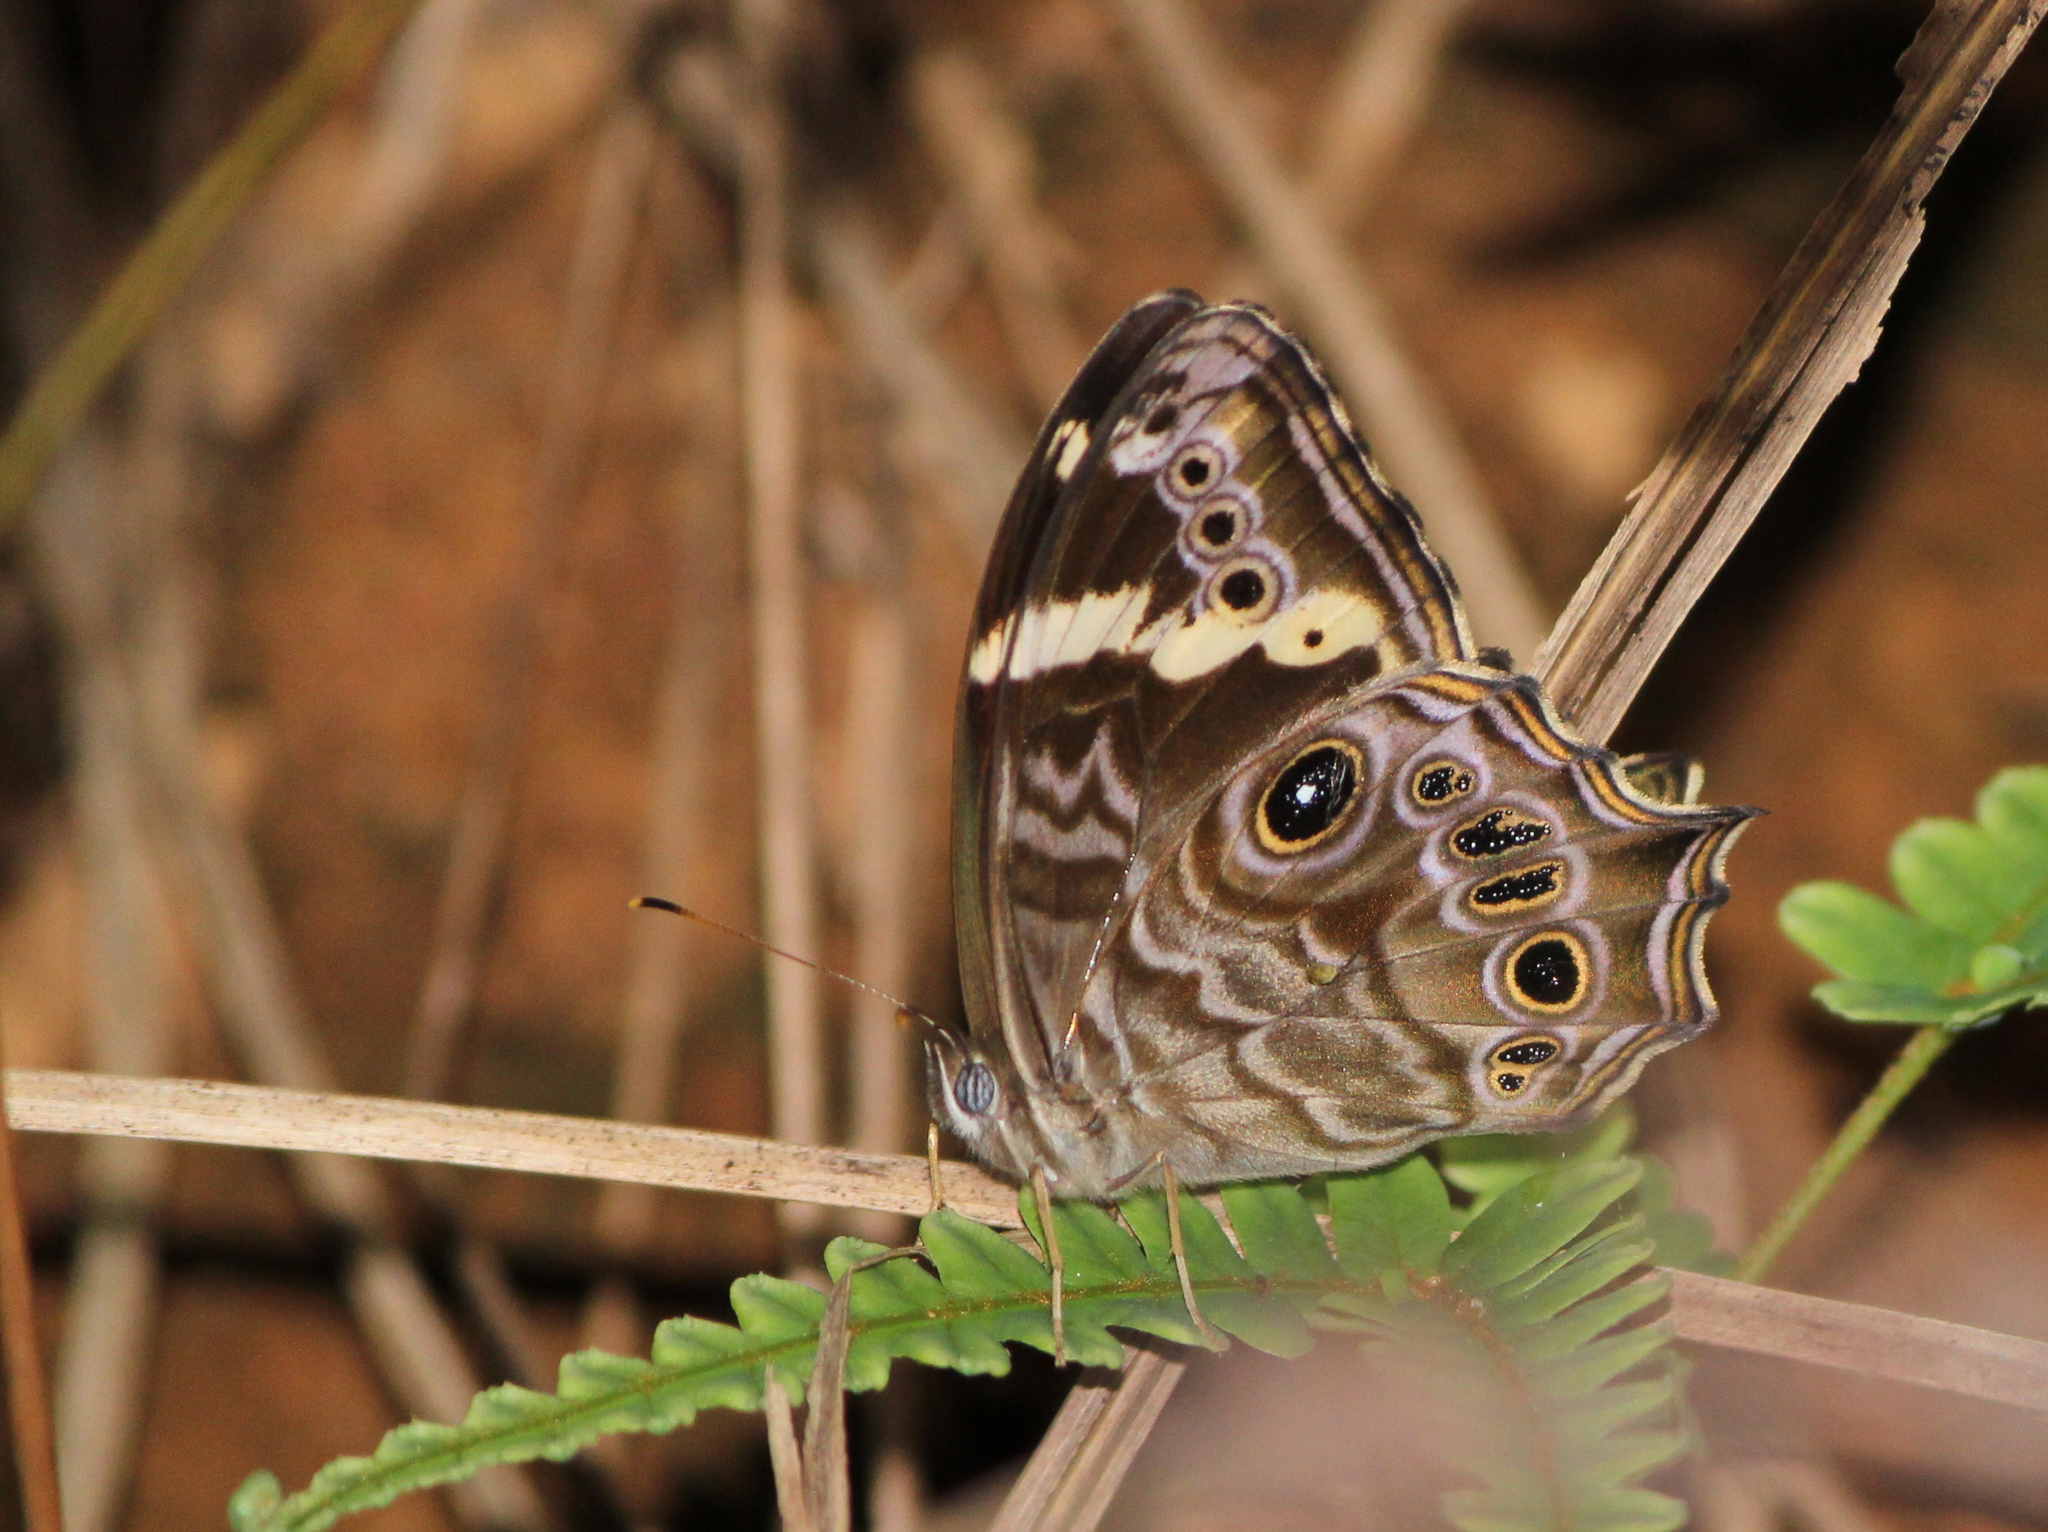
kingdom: Animalia
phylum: Arthropoda
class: Insecta
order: Lepidoptera
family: Nymphalidae
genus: Lethe
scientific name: Lethe rohria
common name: Common treebrown
